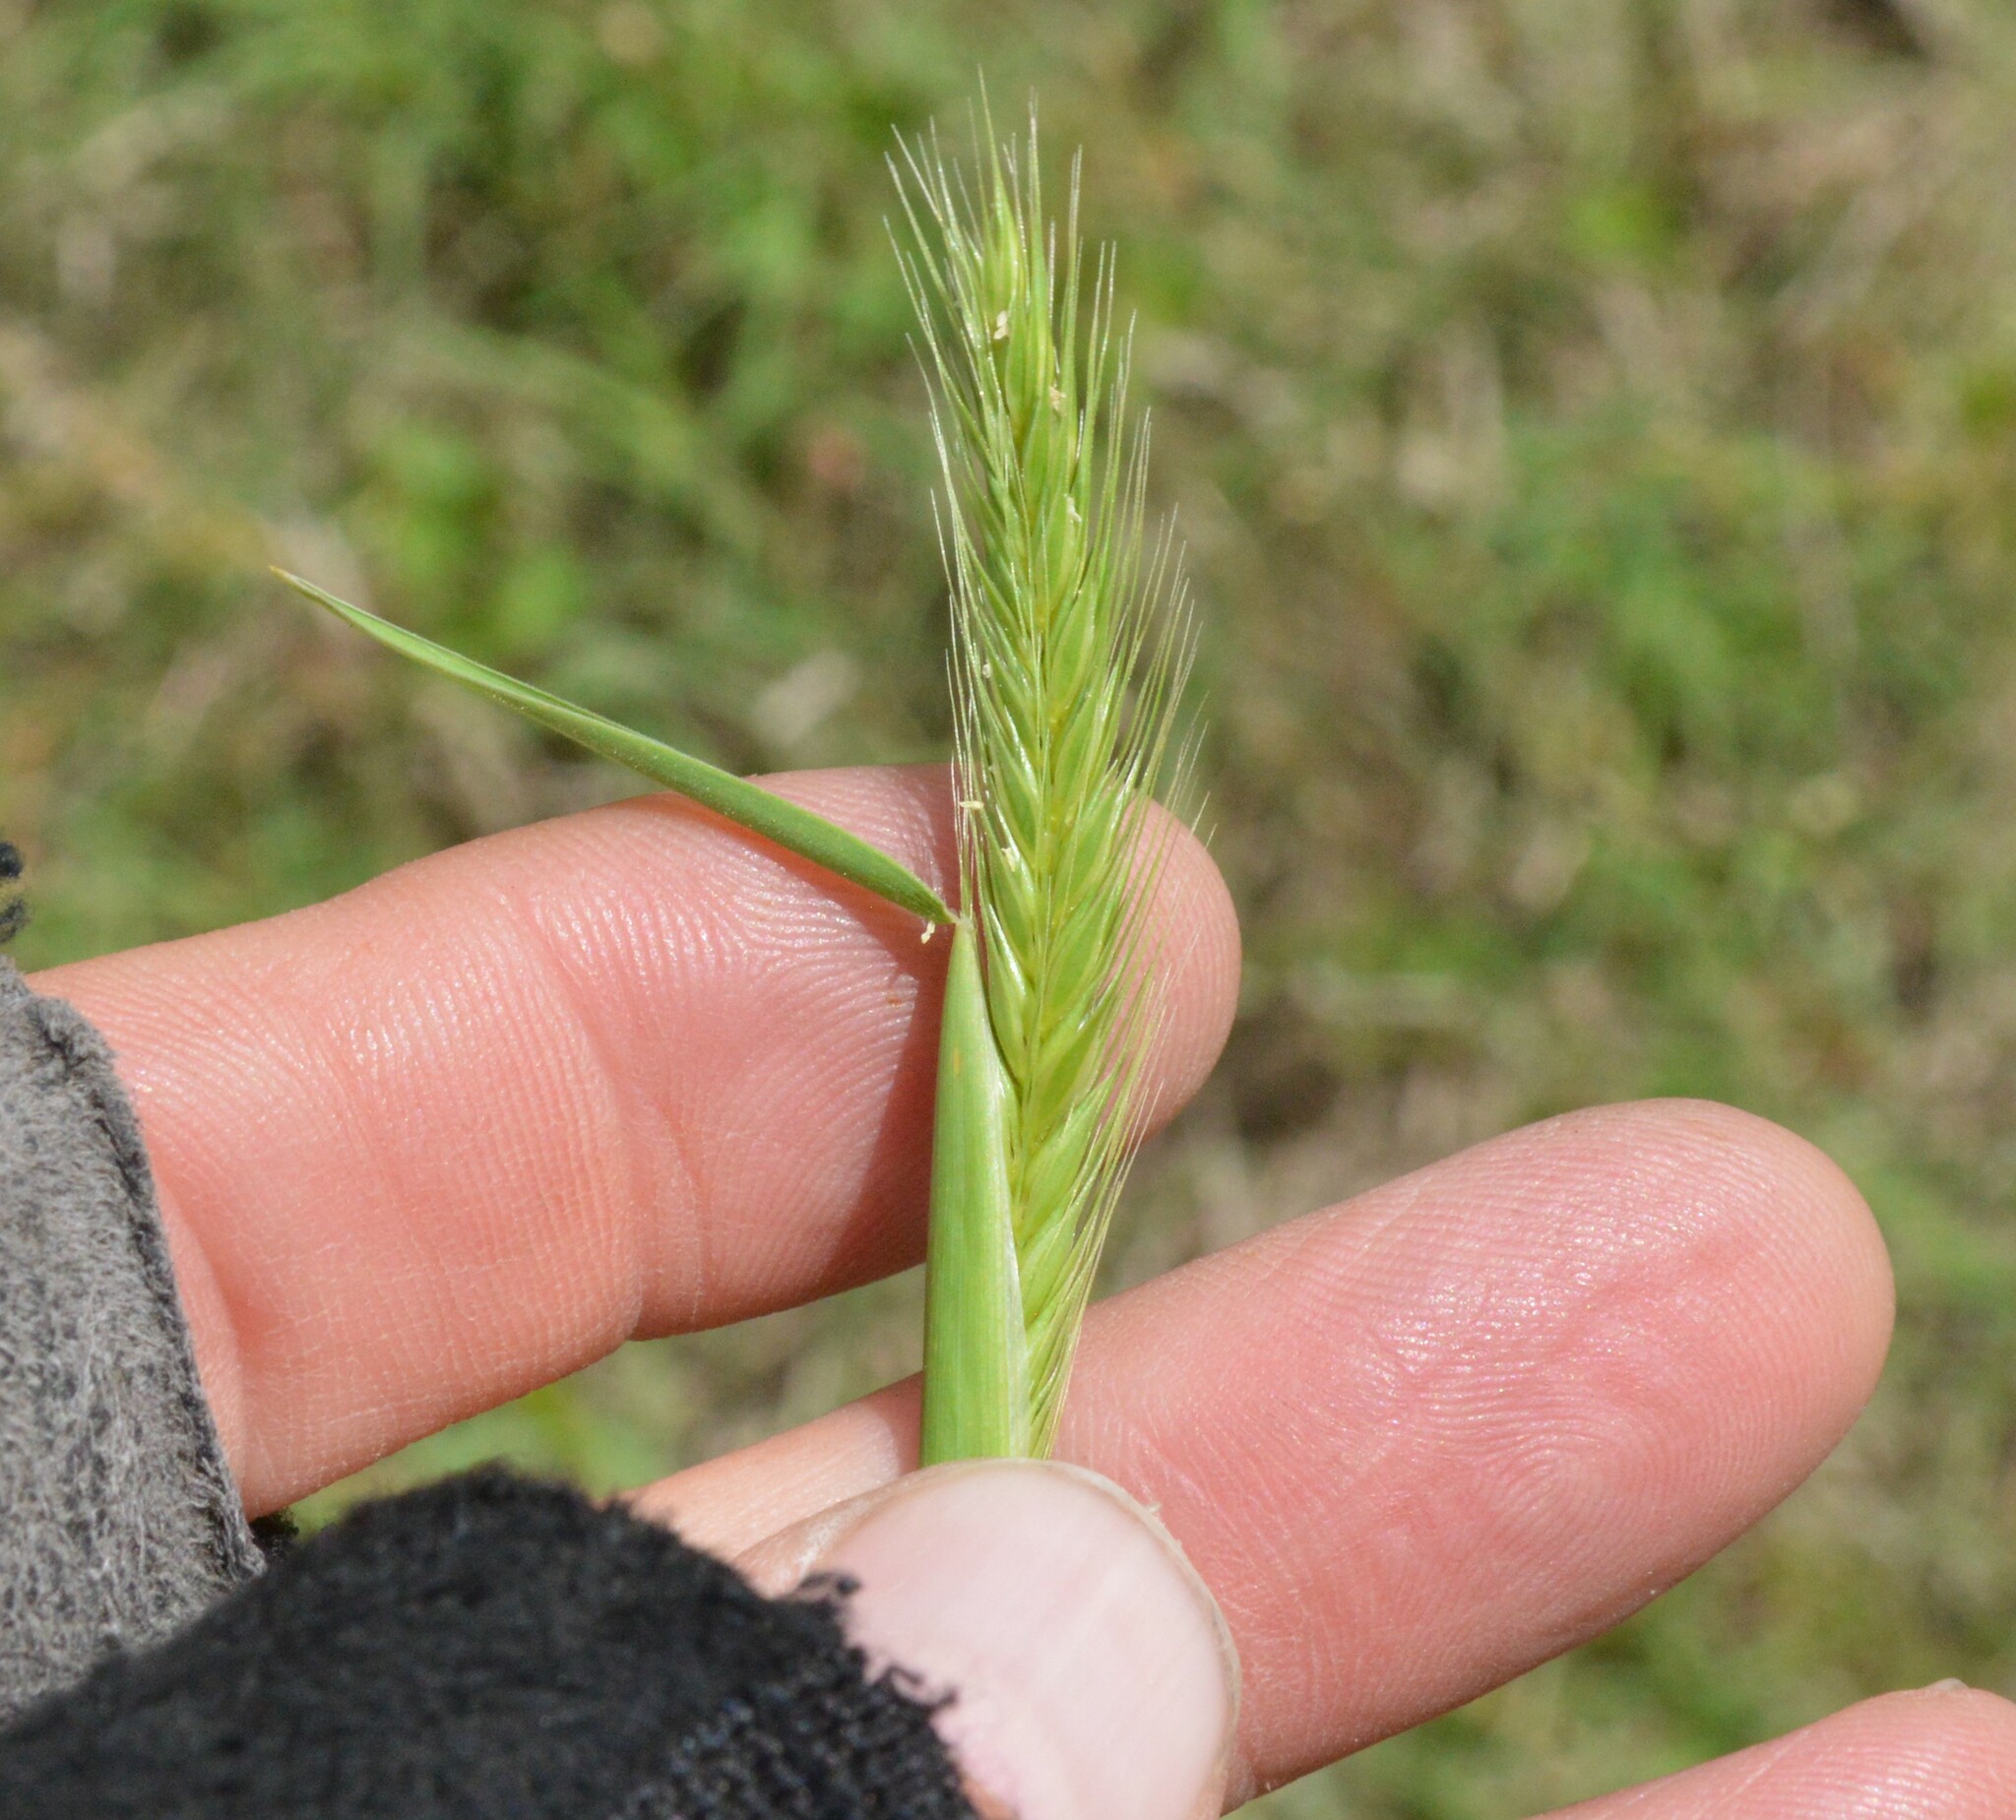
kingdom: Plantae
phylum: Tracheophyta
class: Liliopsida
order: Poales
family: Poaceae
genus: Hordeum
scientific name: Hordeum pusillum
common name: Little barley
